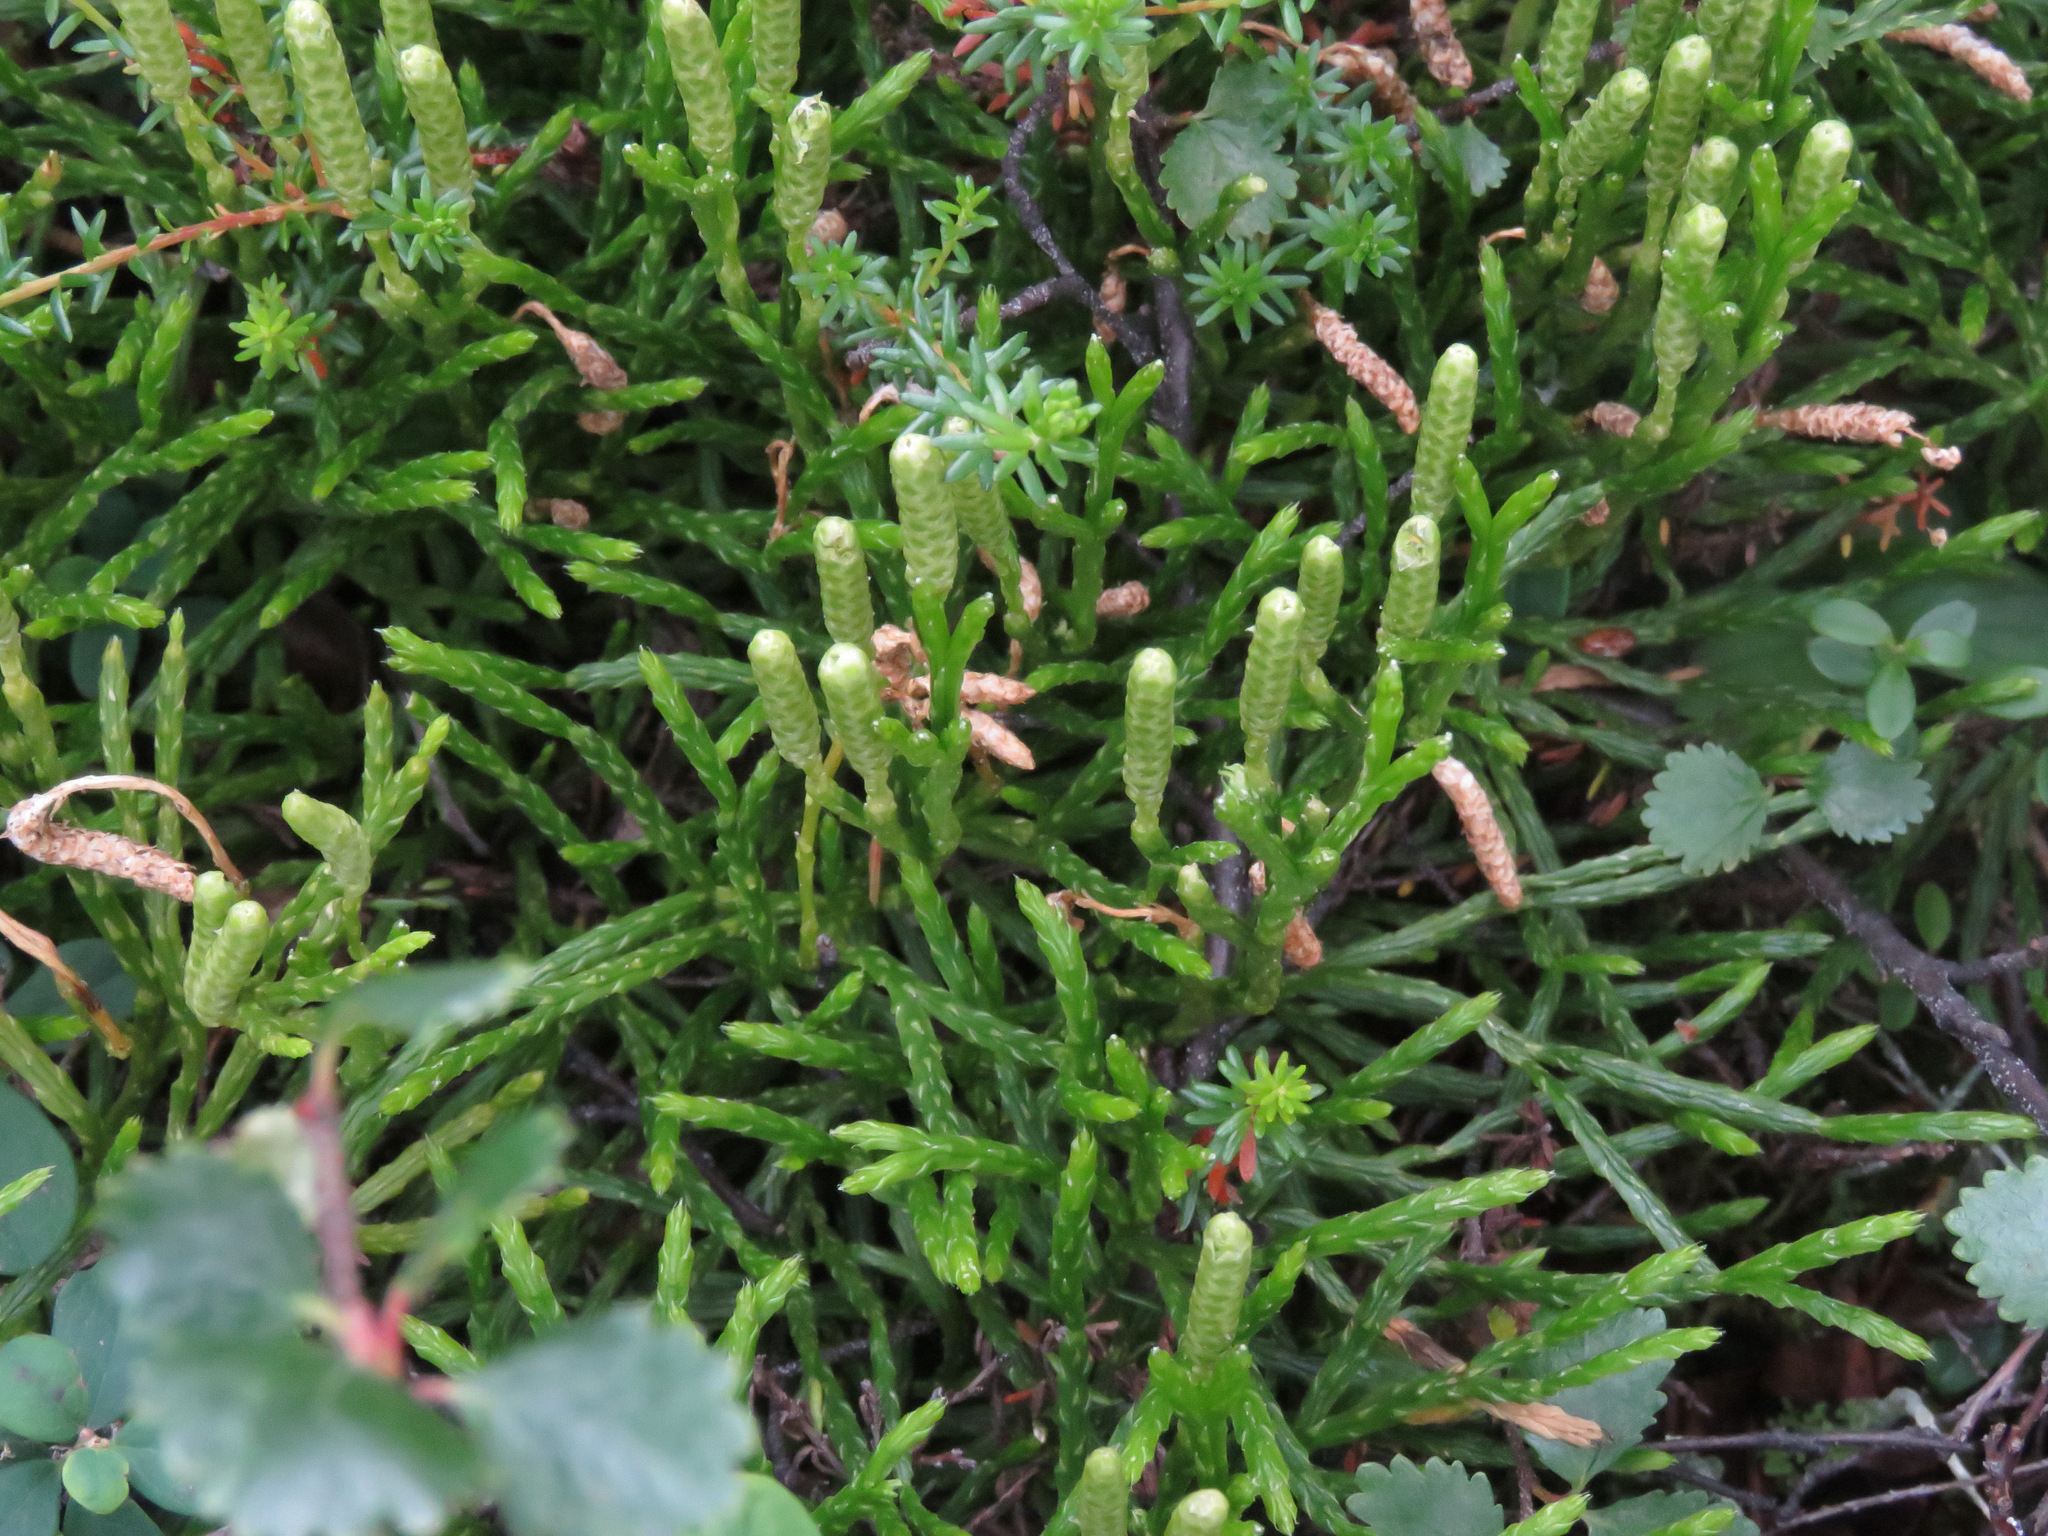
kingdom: Plantae
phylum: Tracheophyta
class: Lycopodiopsida
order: Lycopodiales
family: Lycopodiaceae
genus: Diphasiastrum
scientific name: Diphasiastrum complanatum
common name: Northern running-pine
